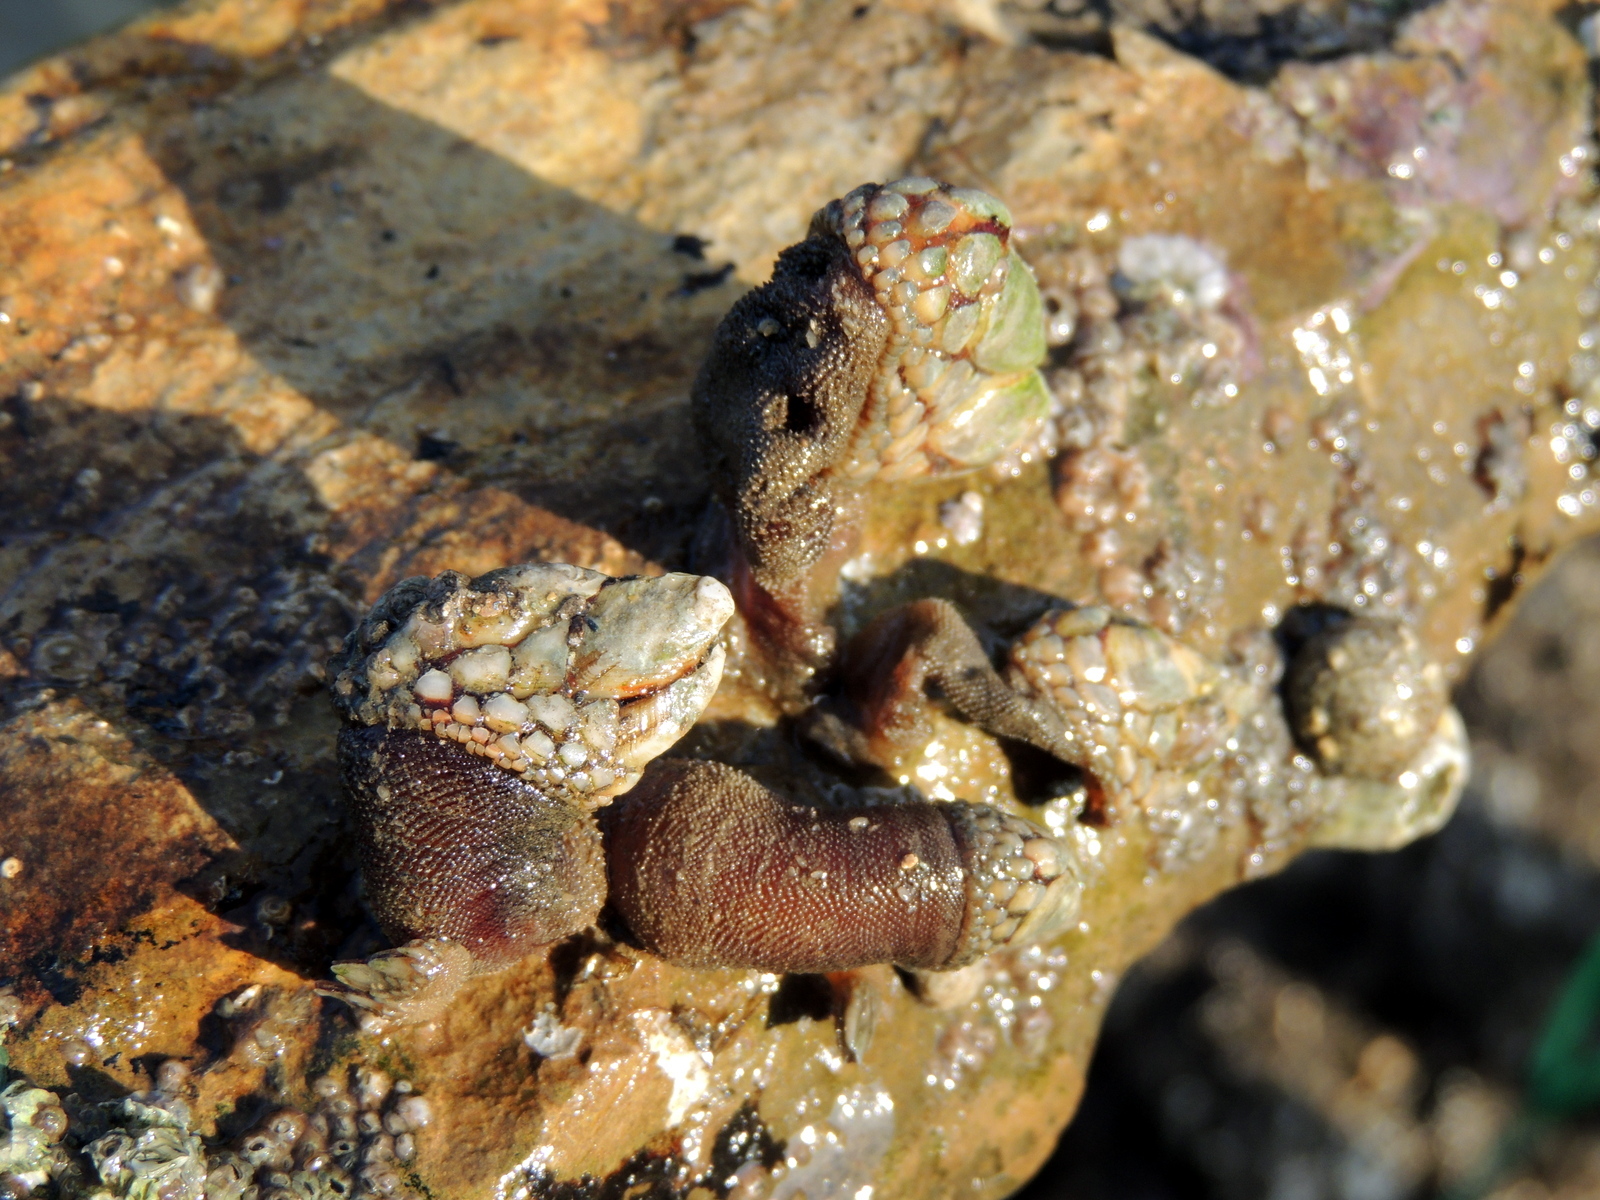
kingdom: Animalia
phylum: Arthropoda
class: Maxillopoda
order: Pedunculata
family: Pollicipedidae
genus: Pollicipes
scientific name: Pollicipes polymerus
